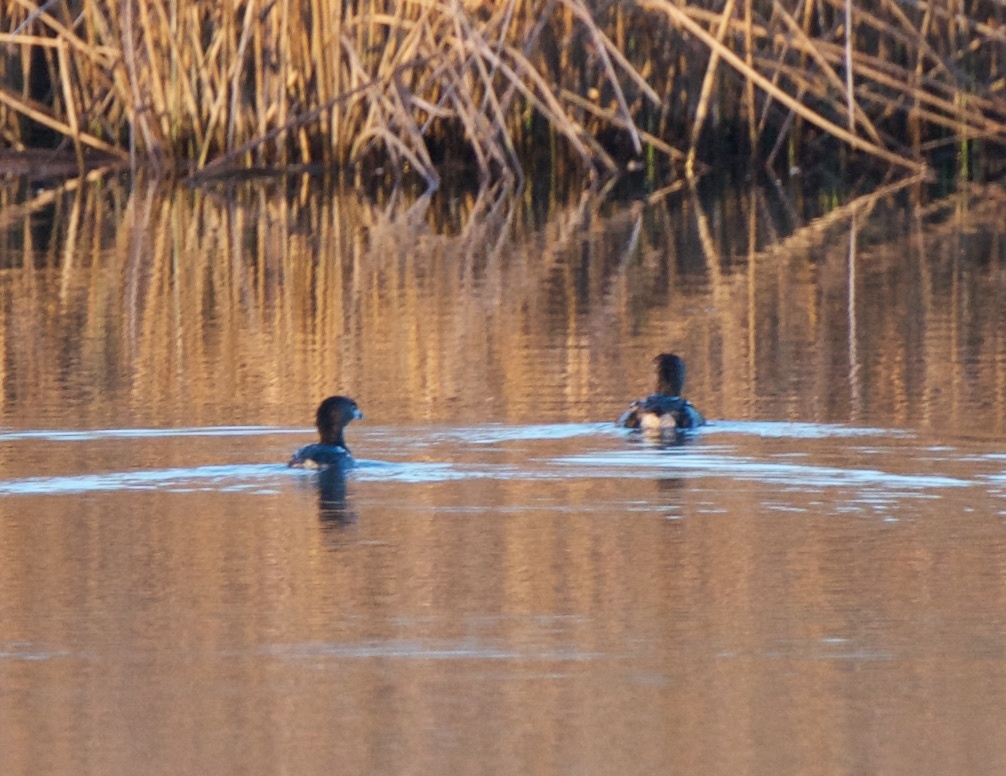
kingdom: Animalia
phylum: Chordata
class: Aves
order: Podicipediformes
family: Podicipedidae
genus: Podilymbus
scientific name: Podilymbus podiceps
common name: Pied-billed grebe
